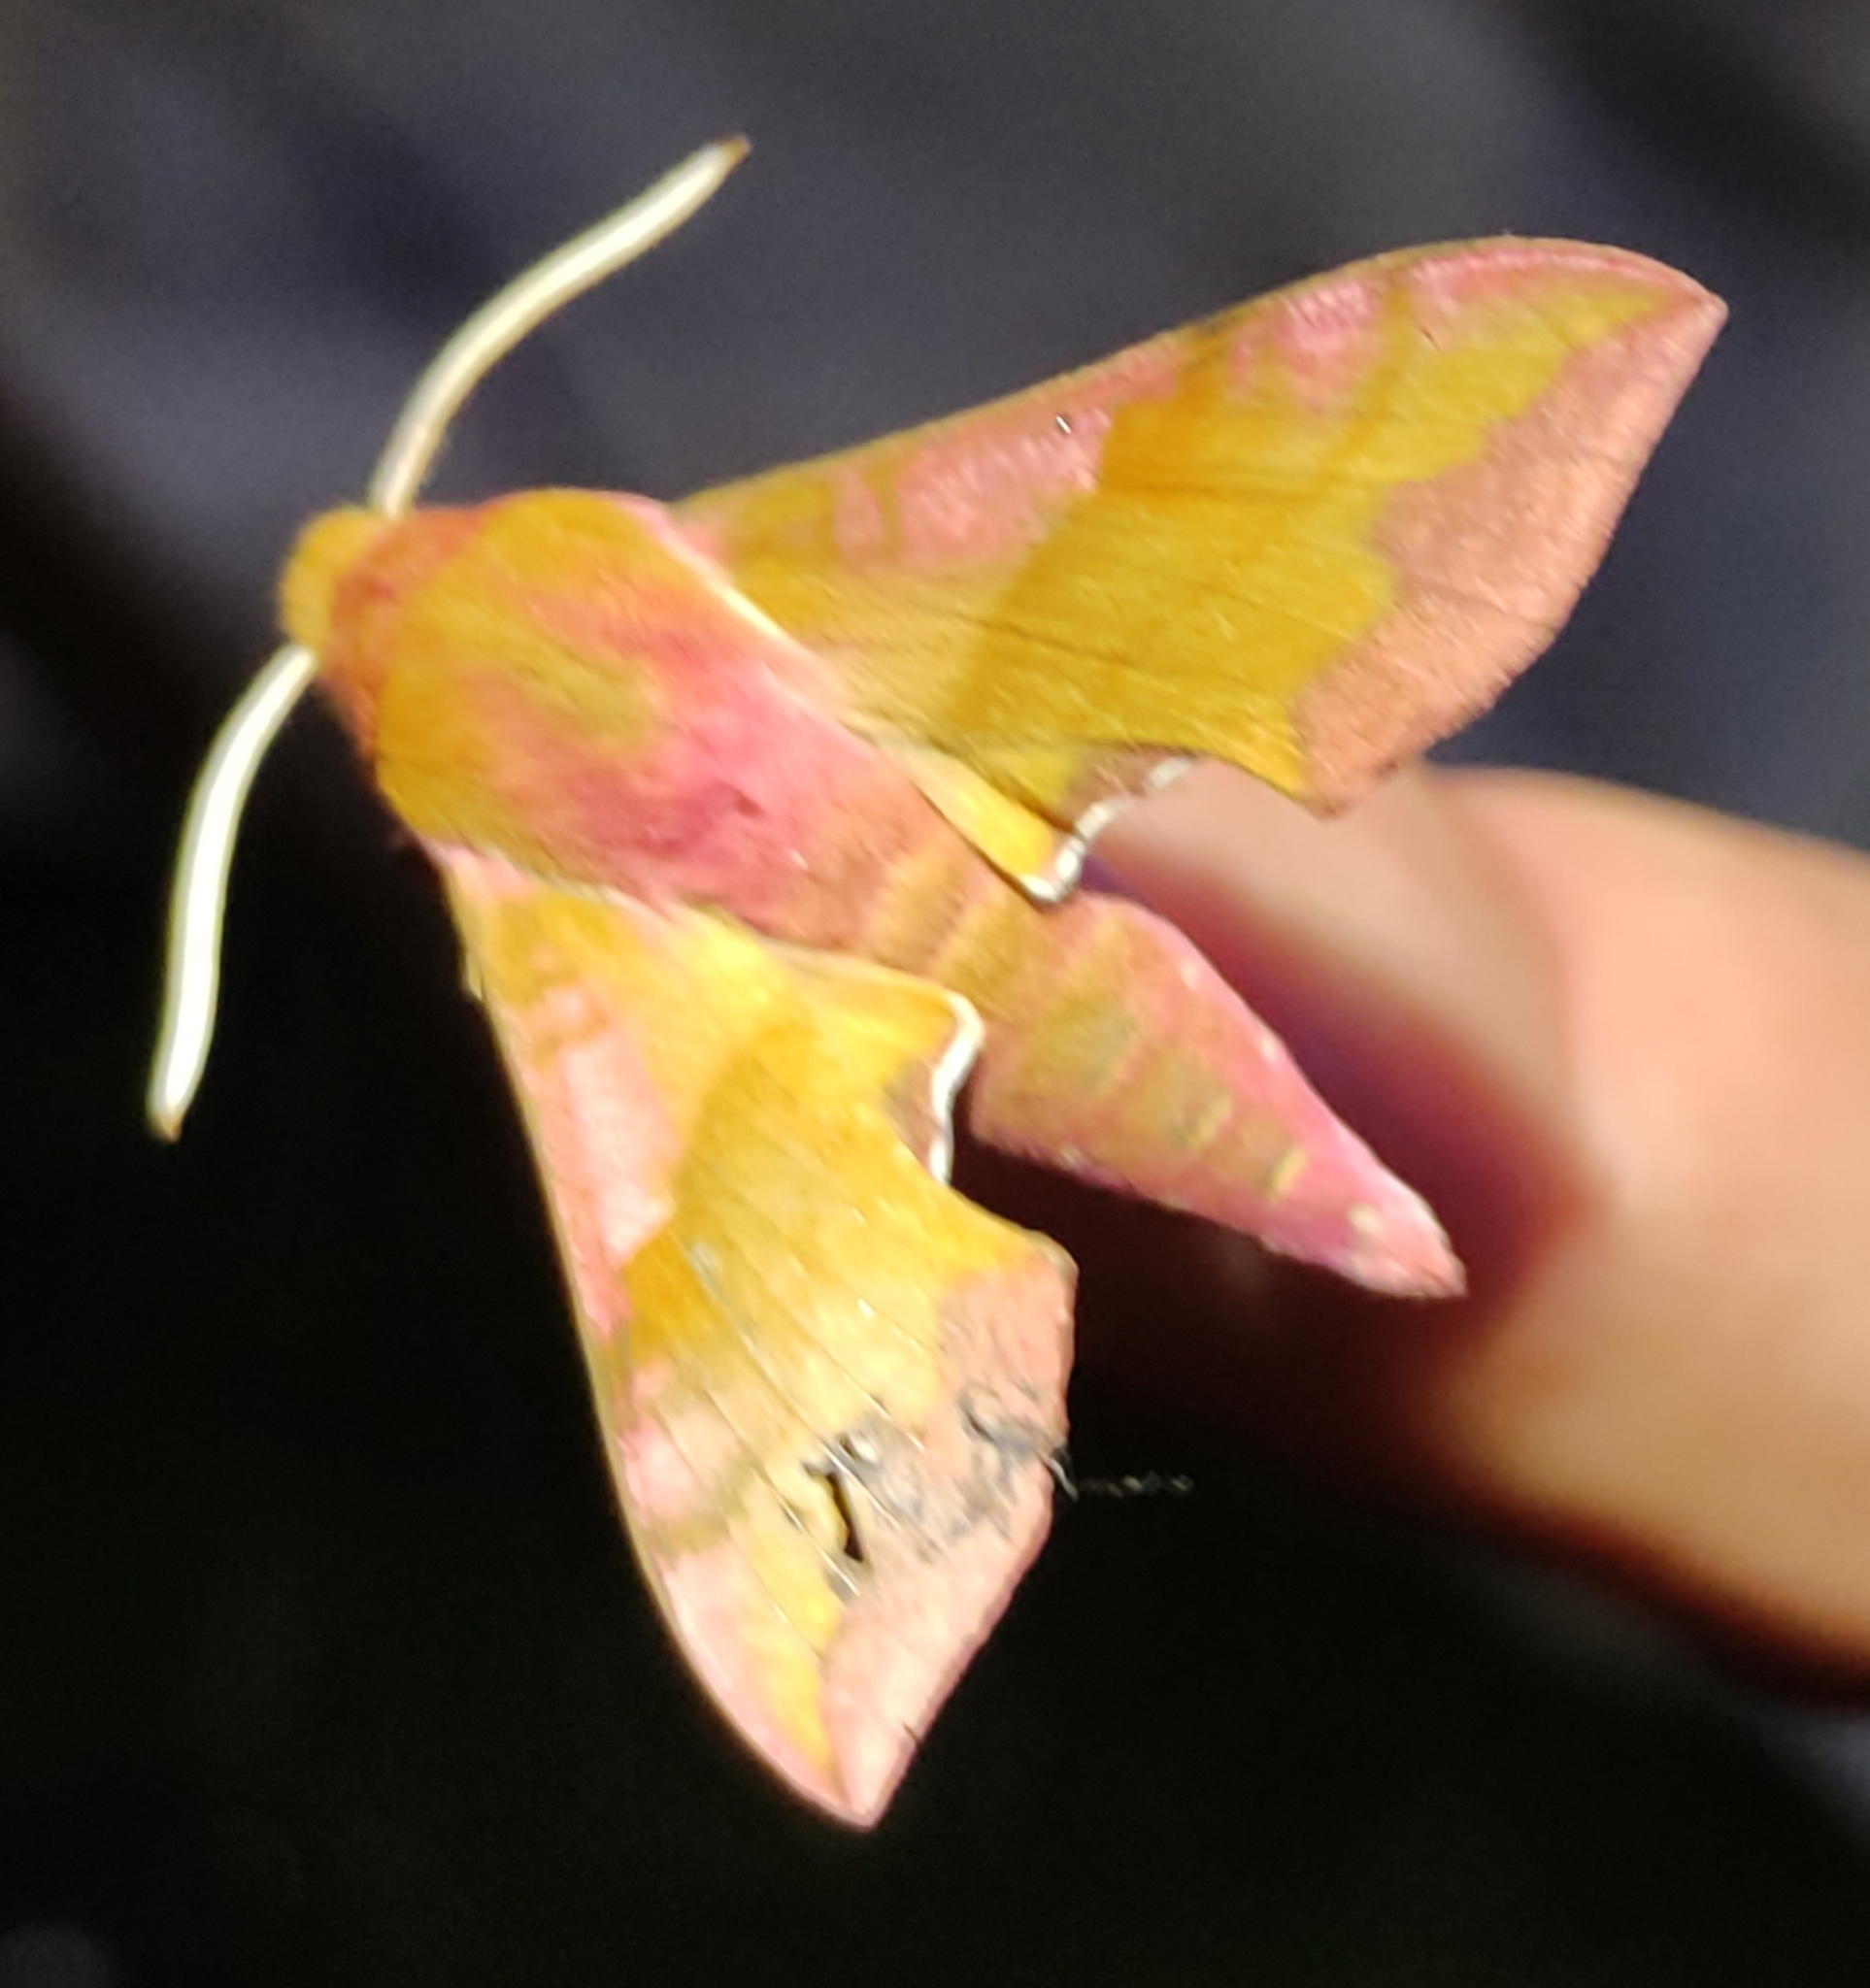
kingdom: Animalia
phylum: Arthropoda
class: Insecta
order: Lepidoptera
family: Sphingidae
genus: Deilephila
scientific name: Deilephila porcellus
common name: Small elephant hawk-moth
